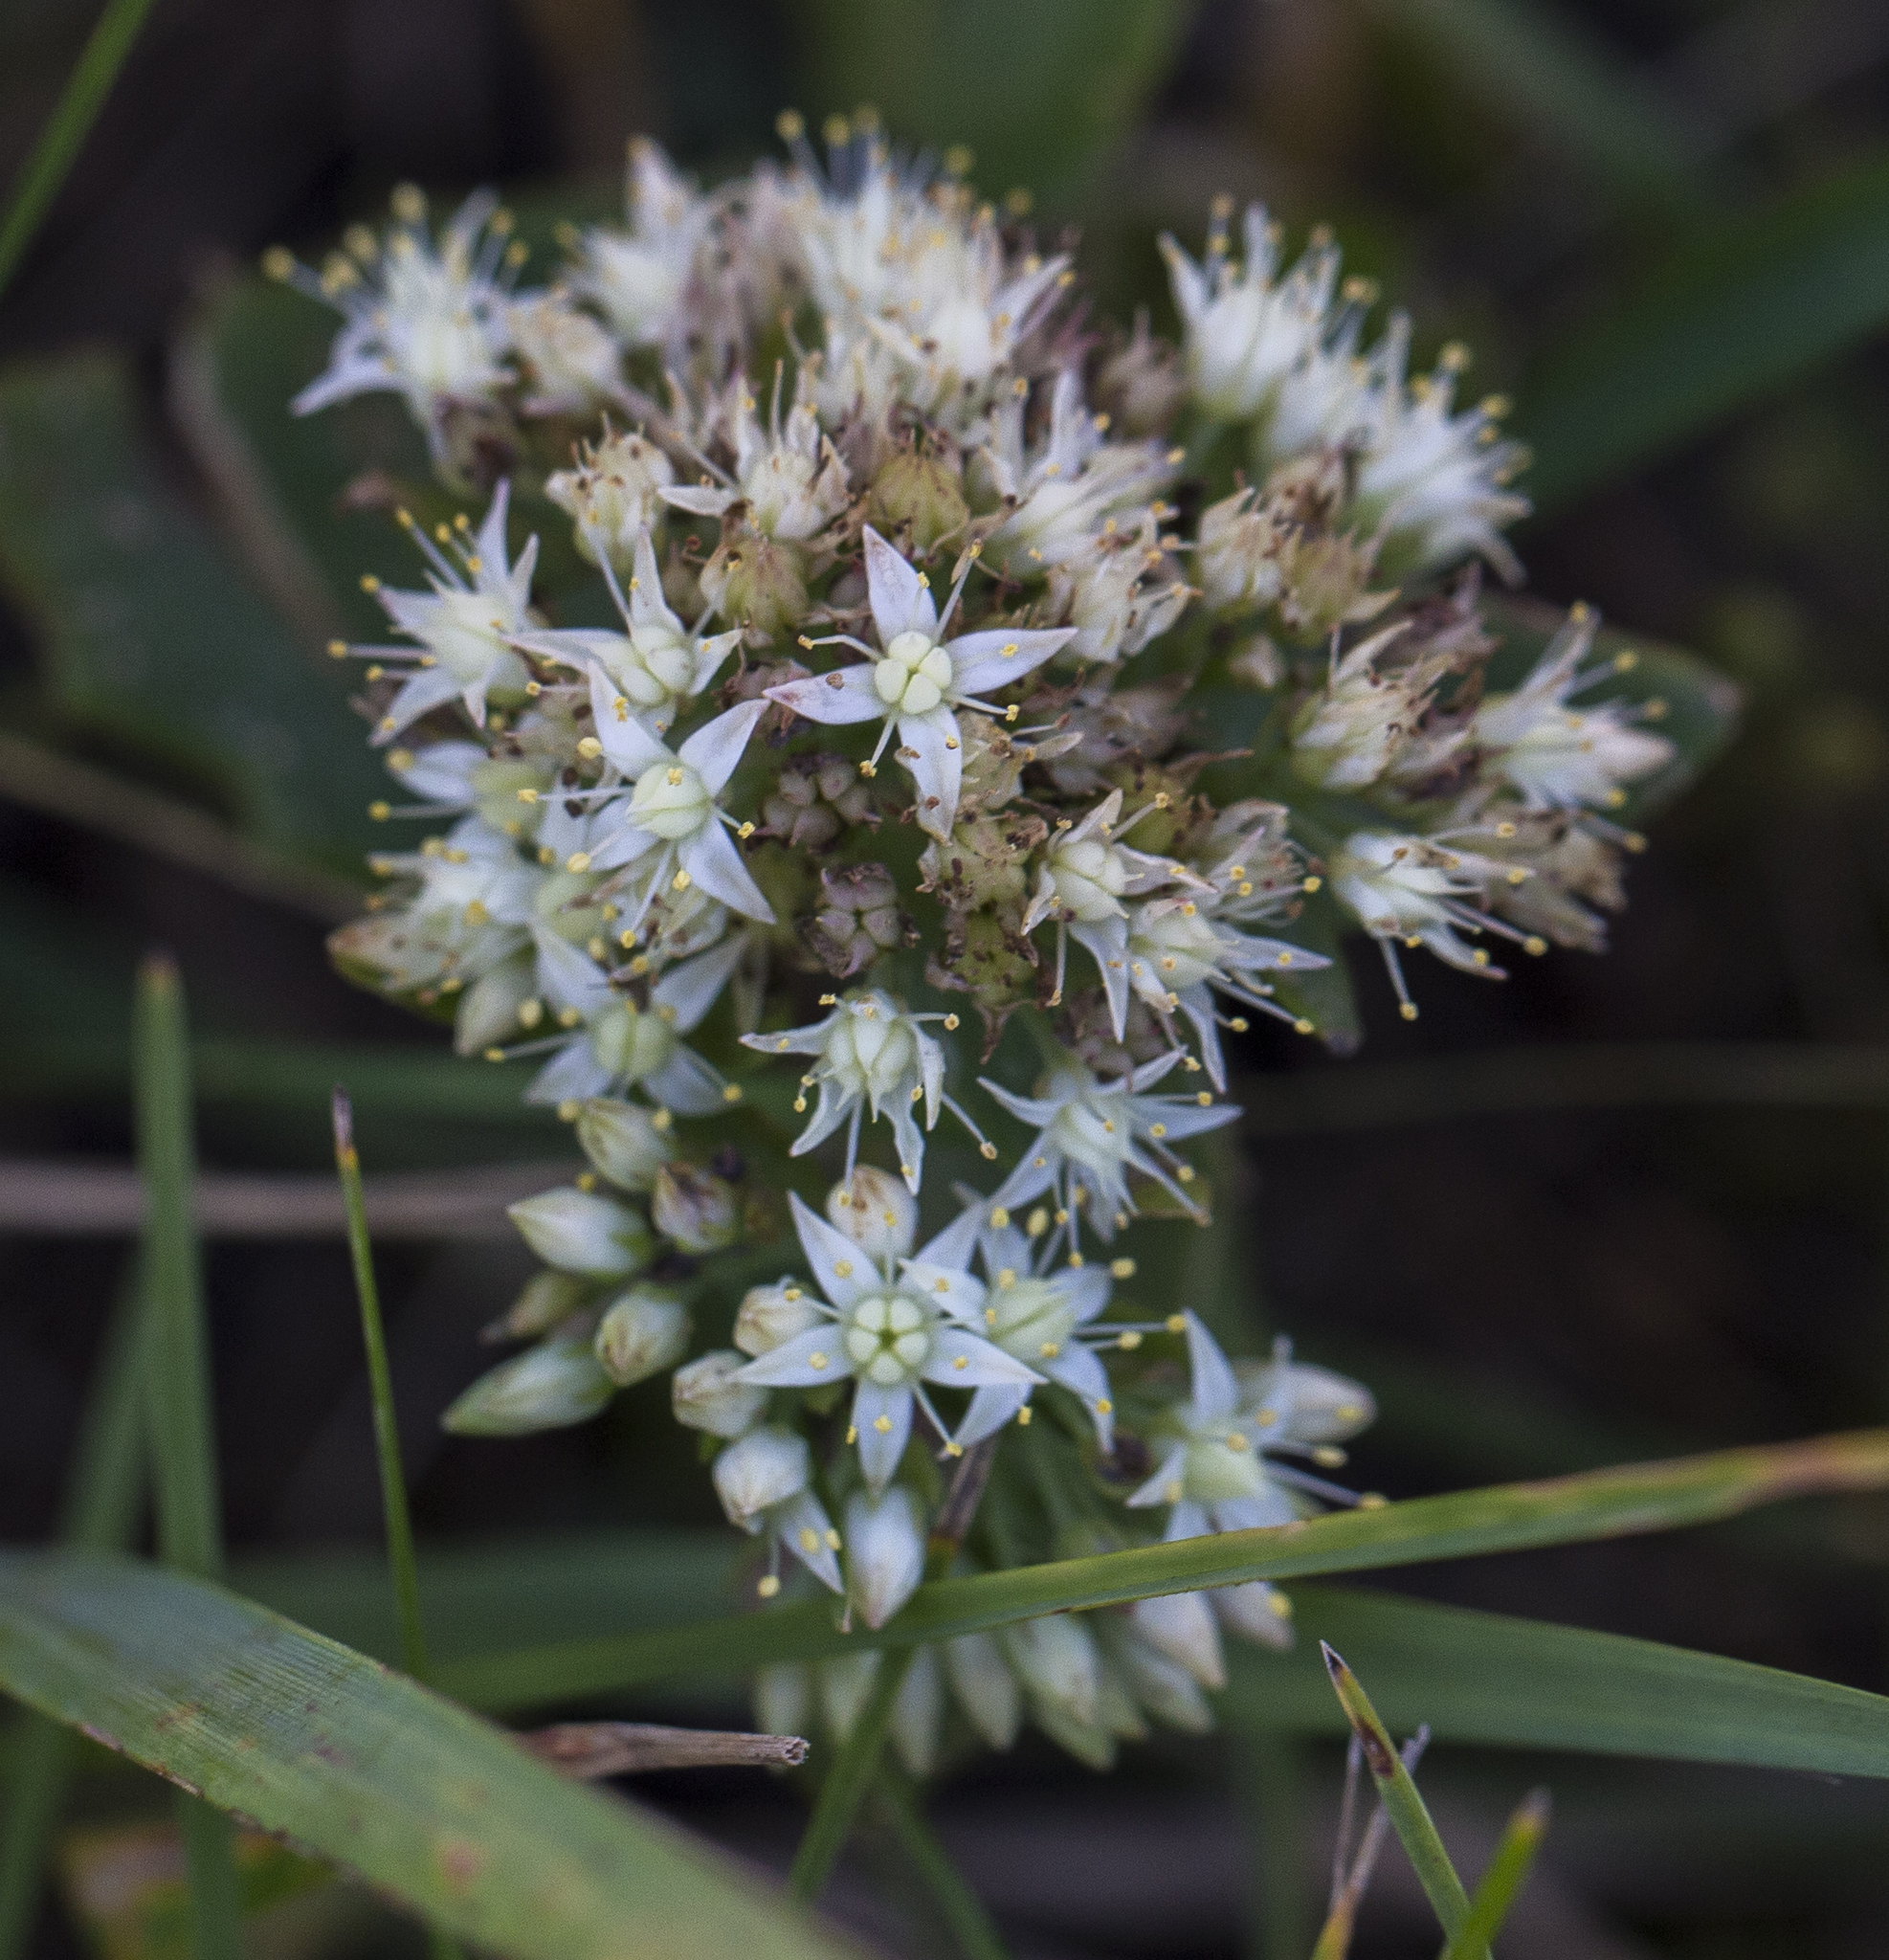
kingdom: Plantae
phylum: Tracheophyta
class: Magnoliopsida
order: Saxifragales
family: Crassulaceae
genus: Hylotelephium
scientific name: Hylotelephium maximum
